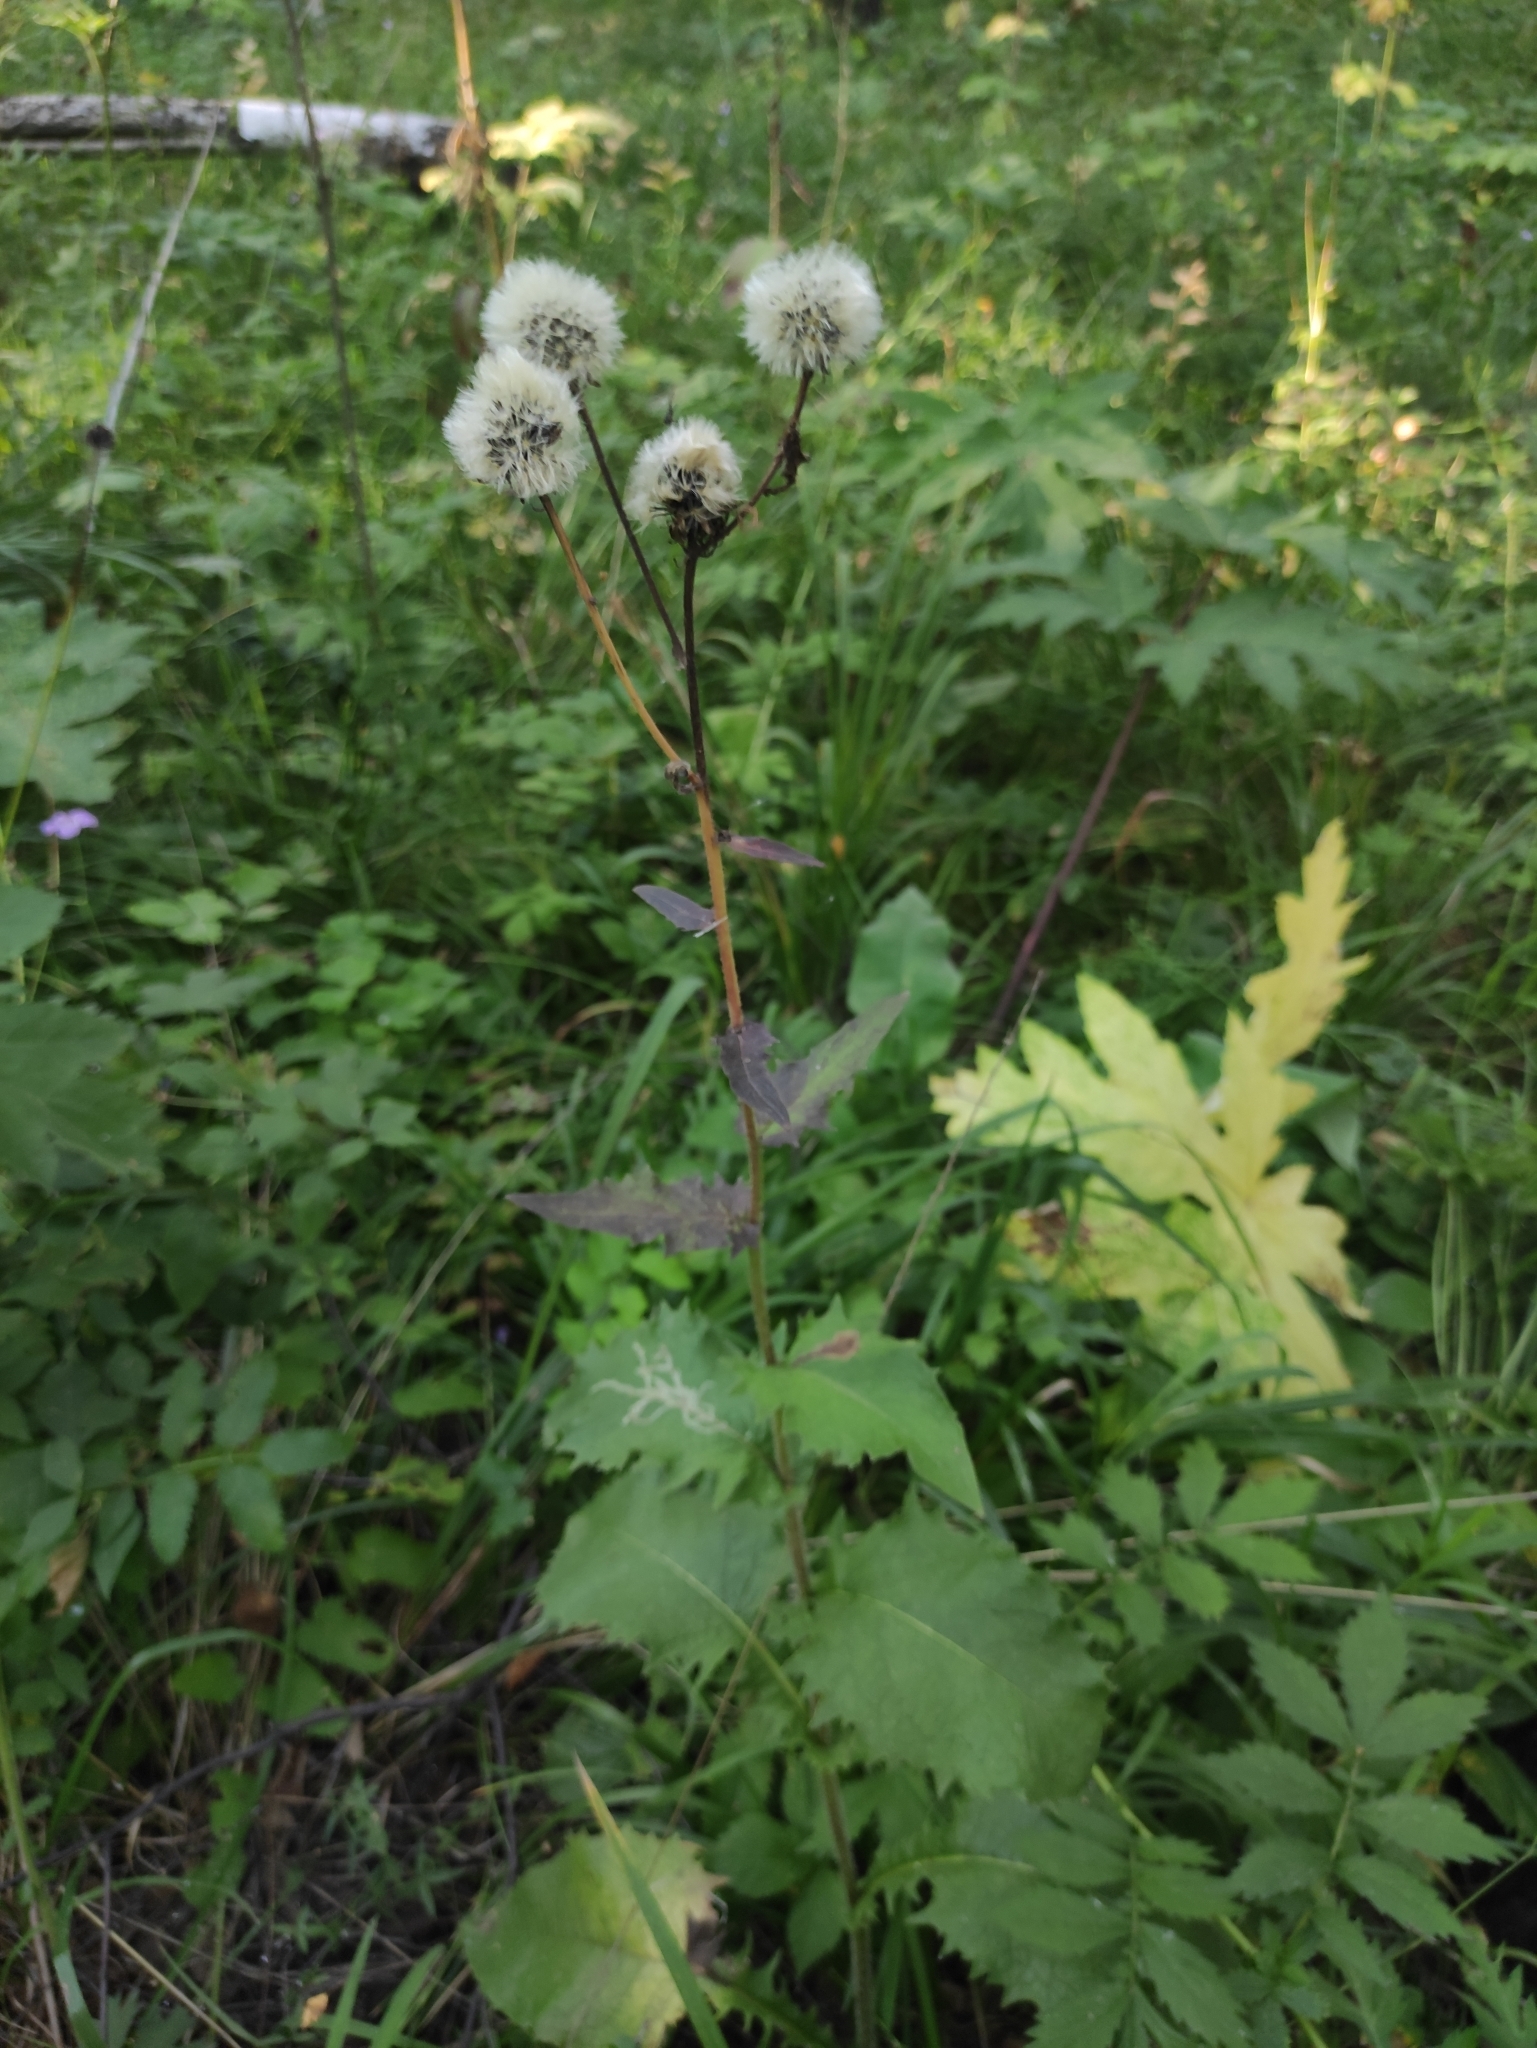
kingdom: Plantae
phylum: Tracheophyta
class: Magnoliopsida
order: Asterales
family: Asteraceae
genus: Crepis
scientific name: Crepis sibirica
